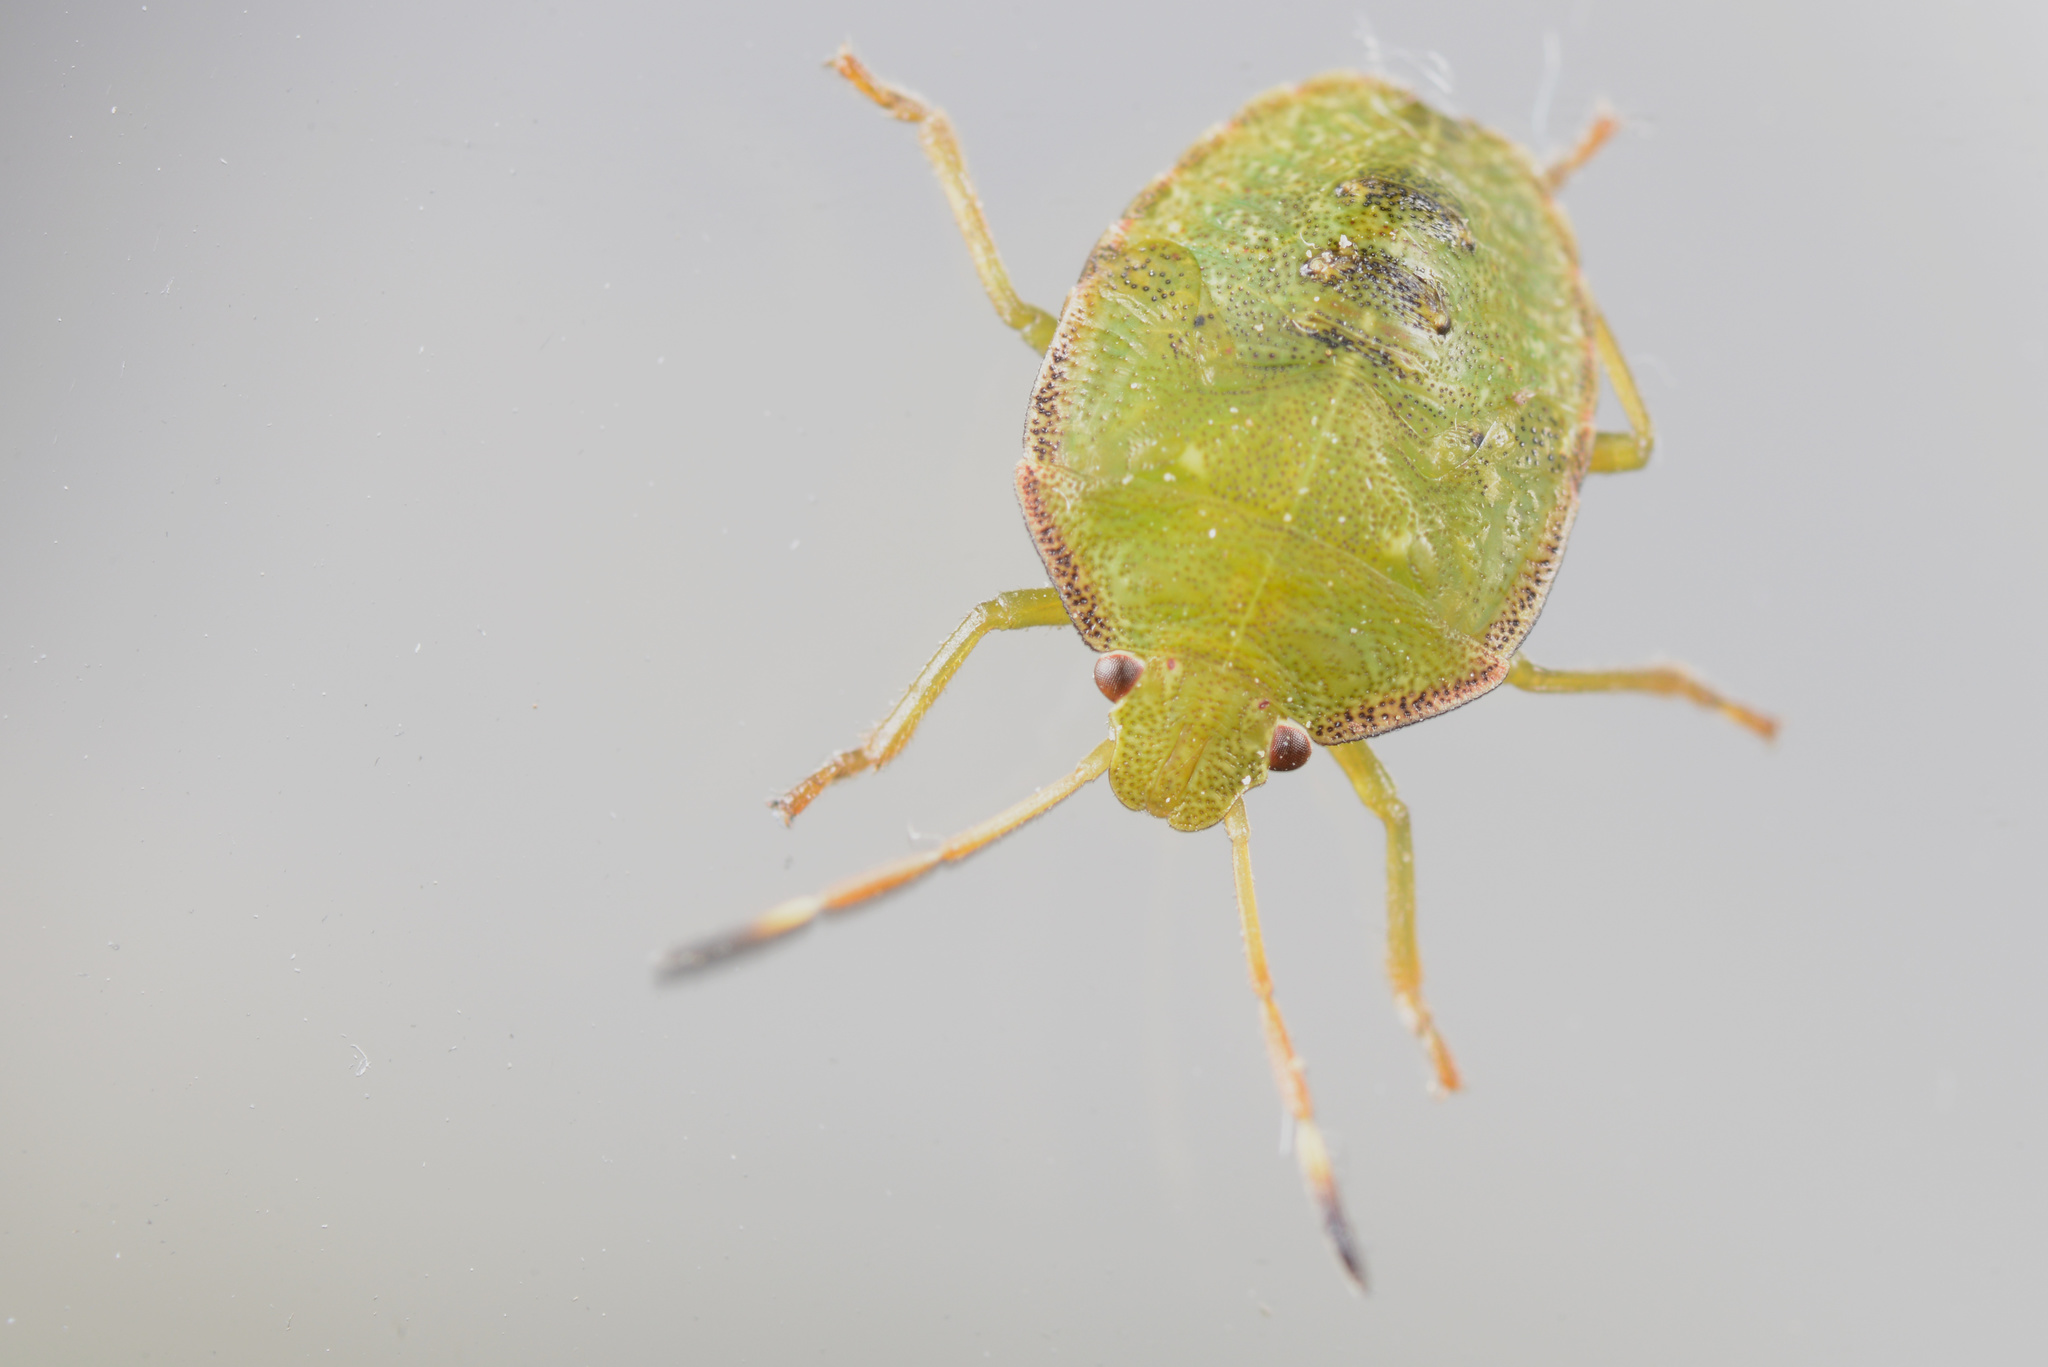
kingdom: Animalia
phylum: Arthropoda
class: Insecta
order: Hemiptera
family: Pentatomidae
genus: Cuspicona
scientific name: Cuspicona simplex
